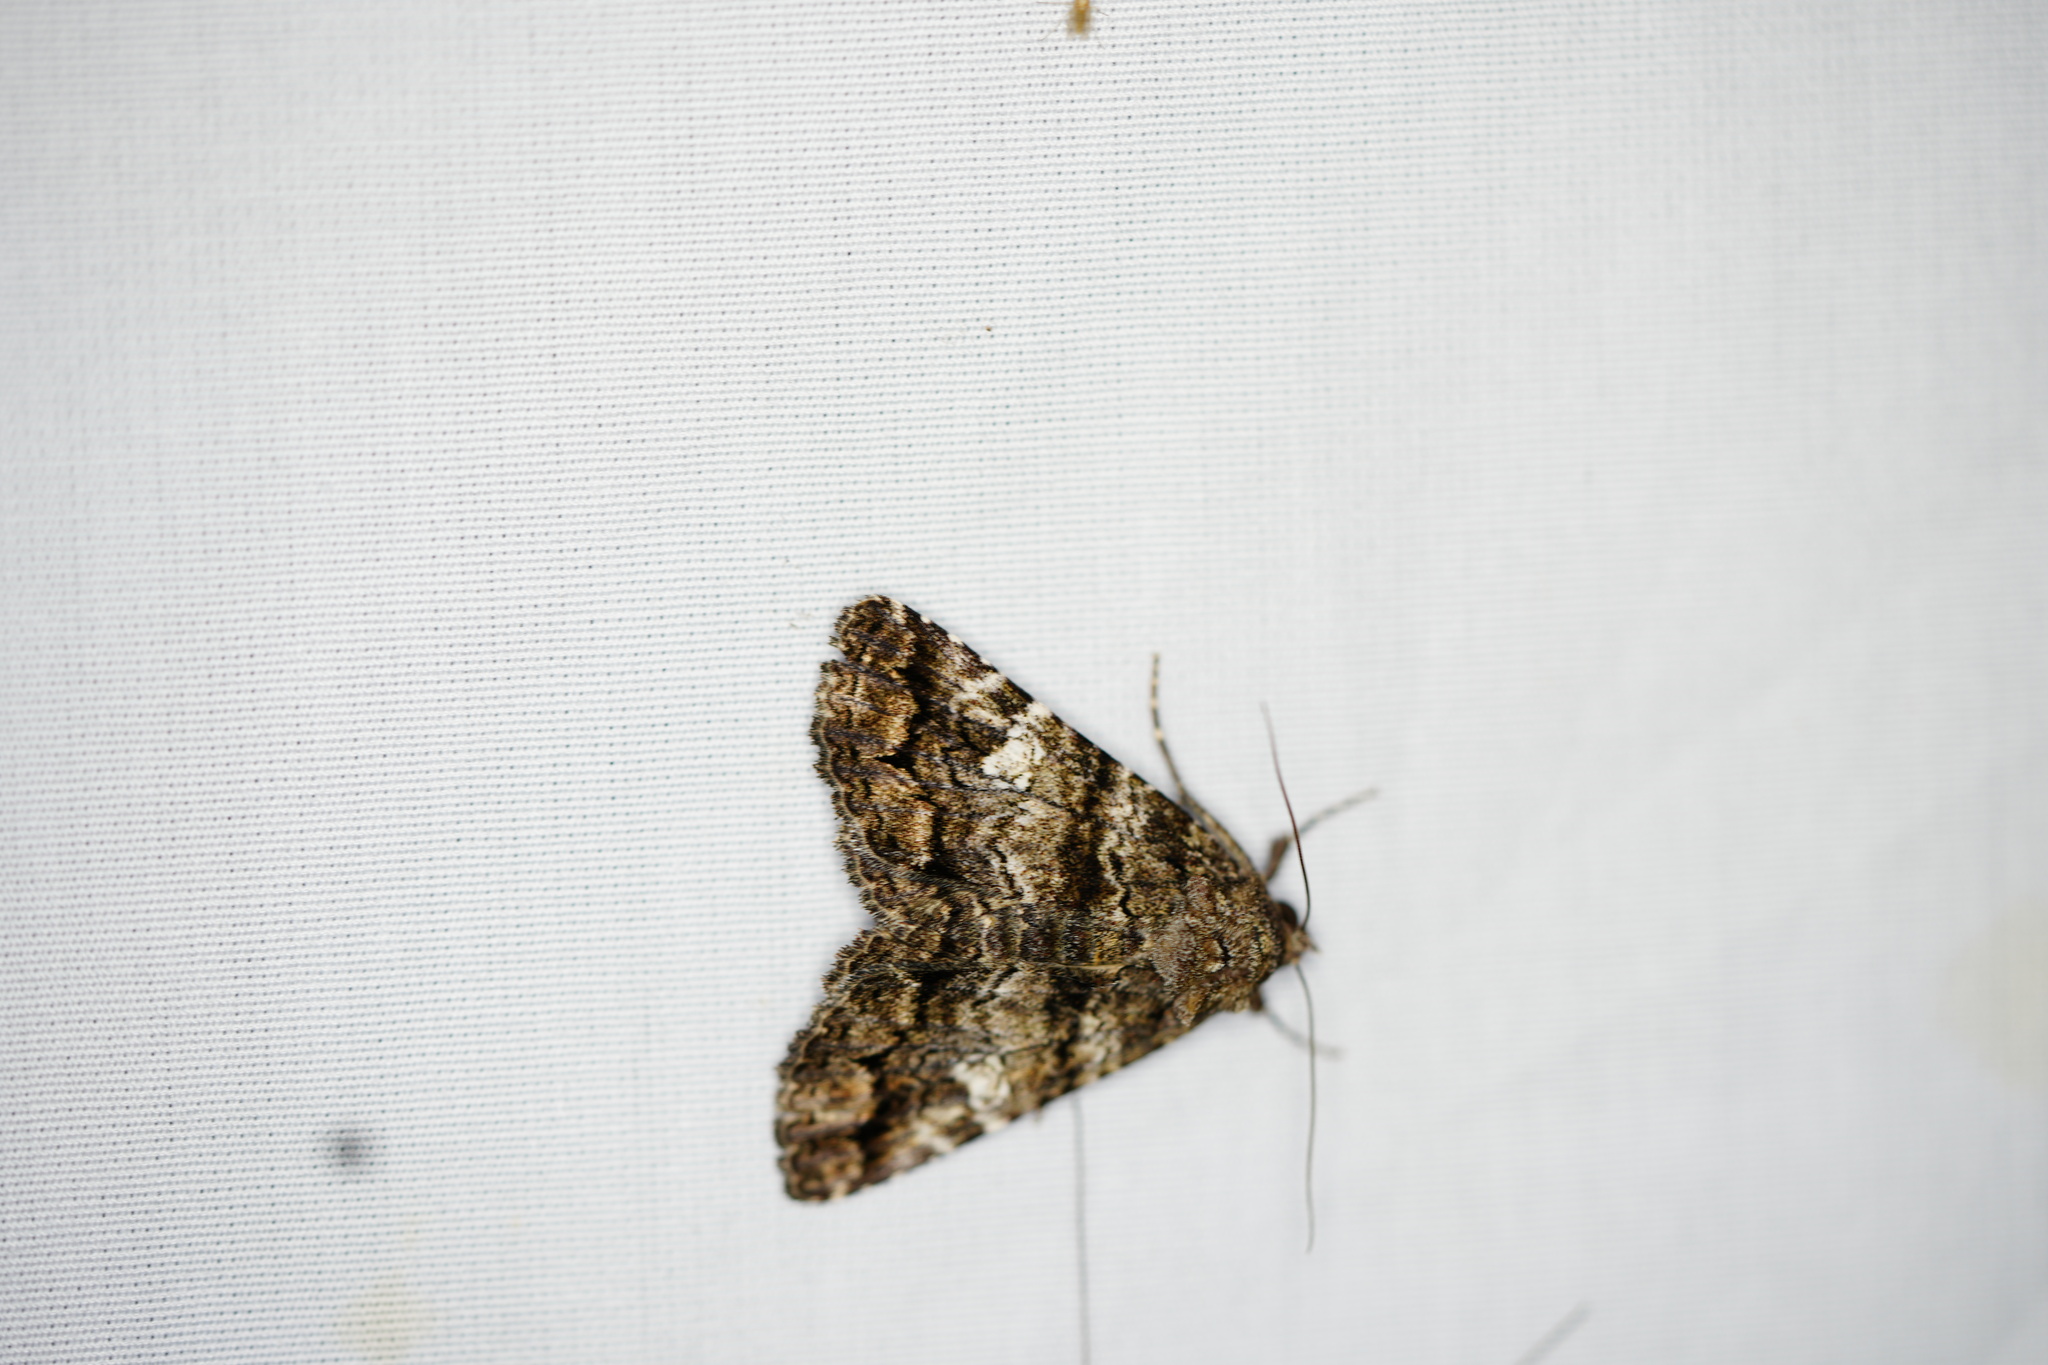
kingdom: Animalia
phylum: Arthropoda
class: Insecta
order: Lepidoptera
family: Erebidae
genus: Metria
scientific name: Metria amella
